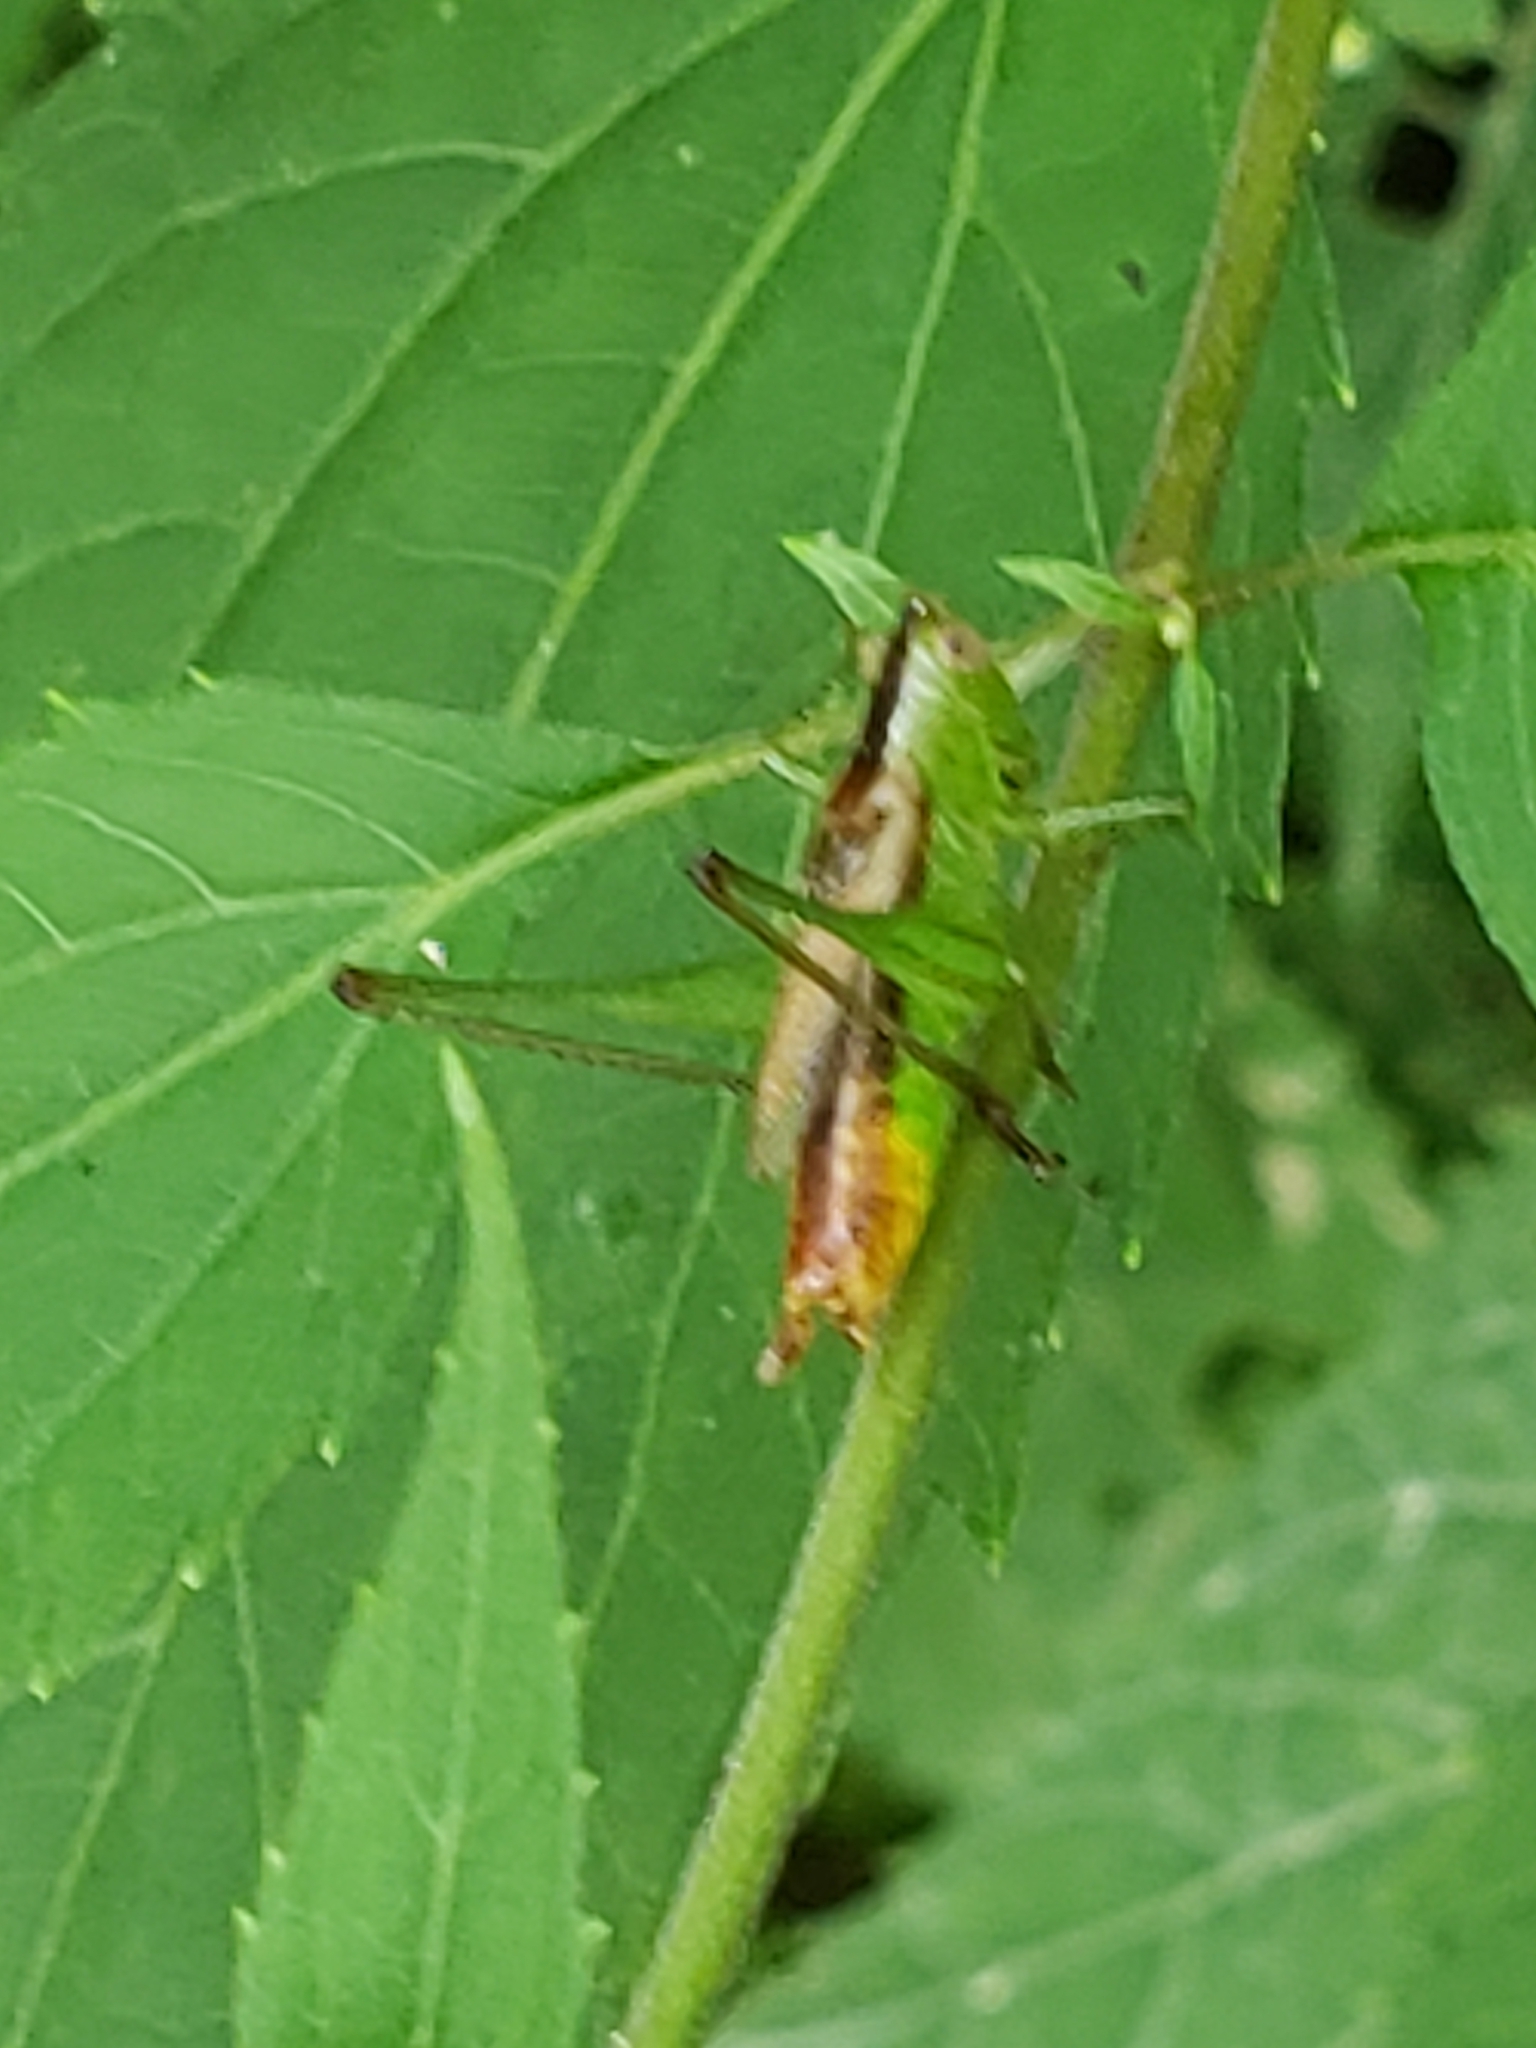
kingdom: Animalia
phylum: Arthropoda
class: Insecta
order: Orthoptera
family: Tettigoniidae
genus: Conocephalus
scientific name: Conocephalus brevipennis
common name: Short-winged meadow katydid
